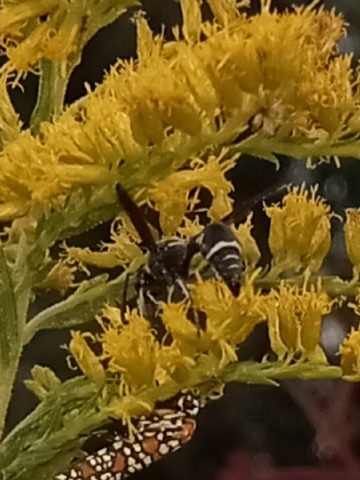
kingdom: Animalia
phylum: Arthropoda
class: Insecta
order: Hymenoptera
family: Vespidae
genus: Eumenes
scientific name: Eumenes fraternus
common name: Fraternal potter wasp
